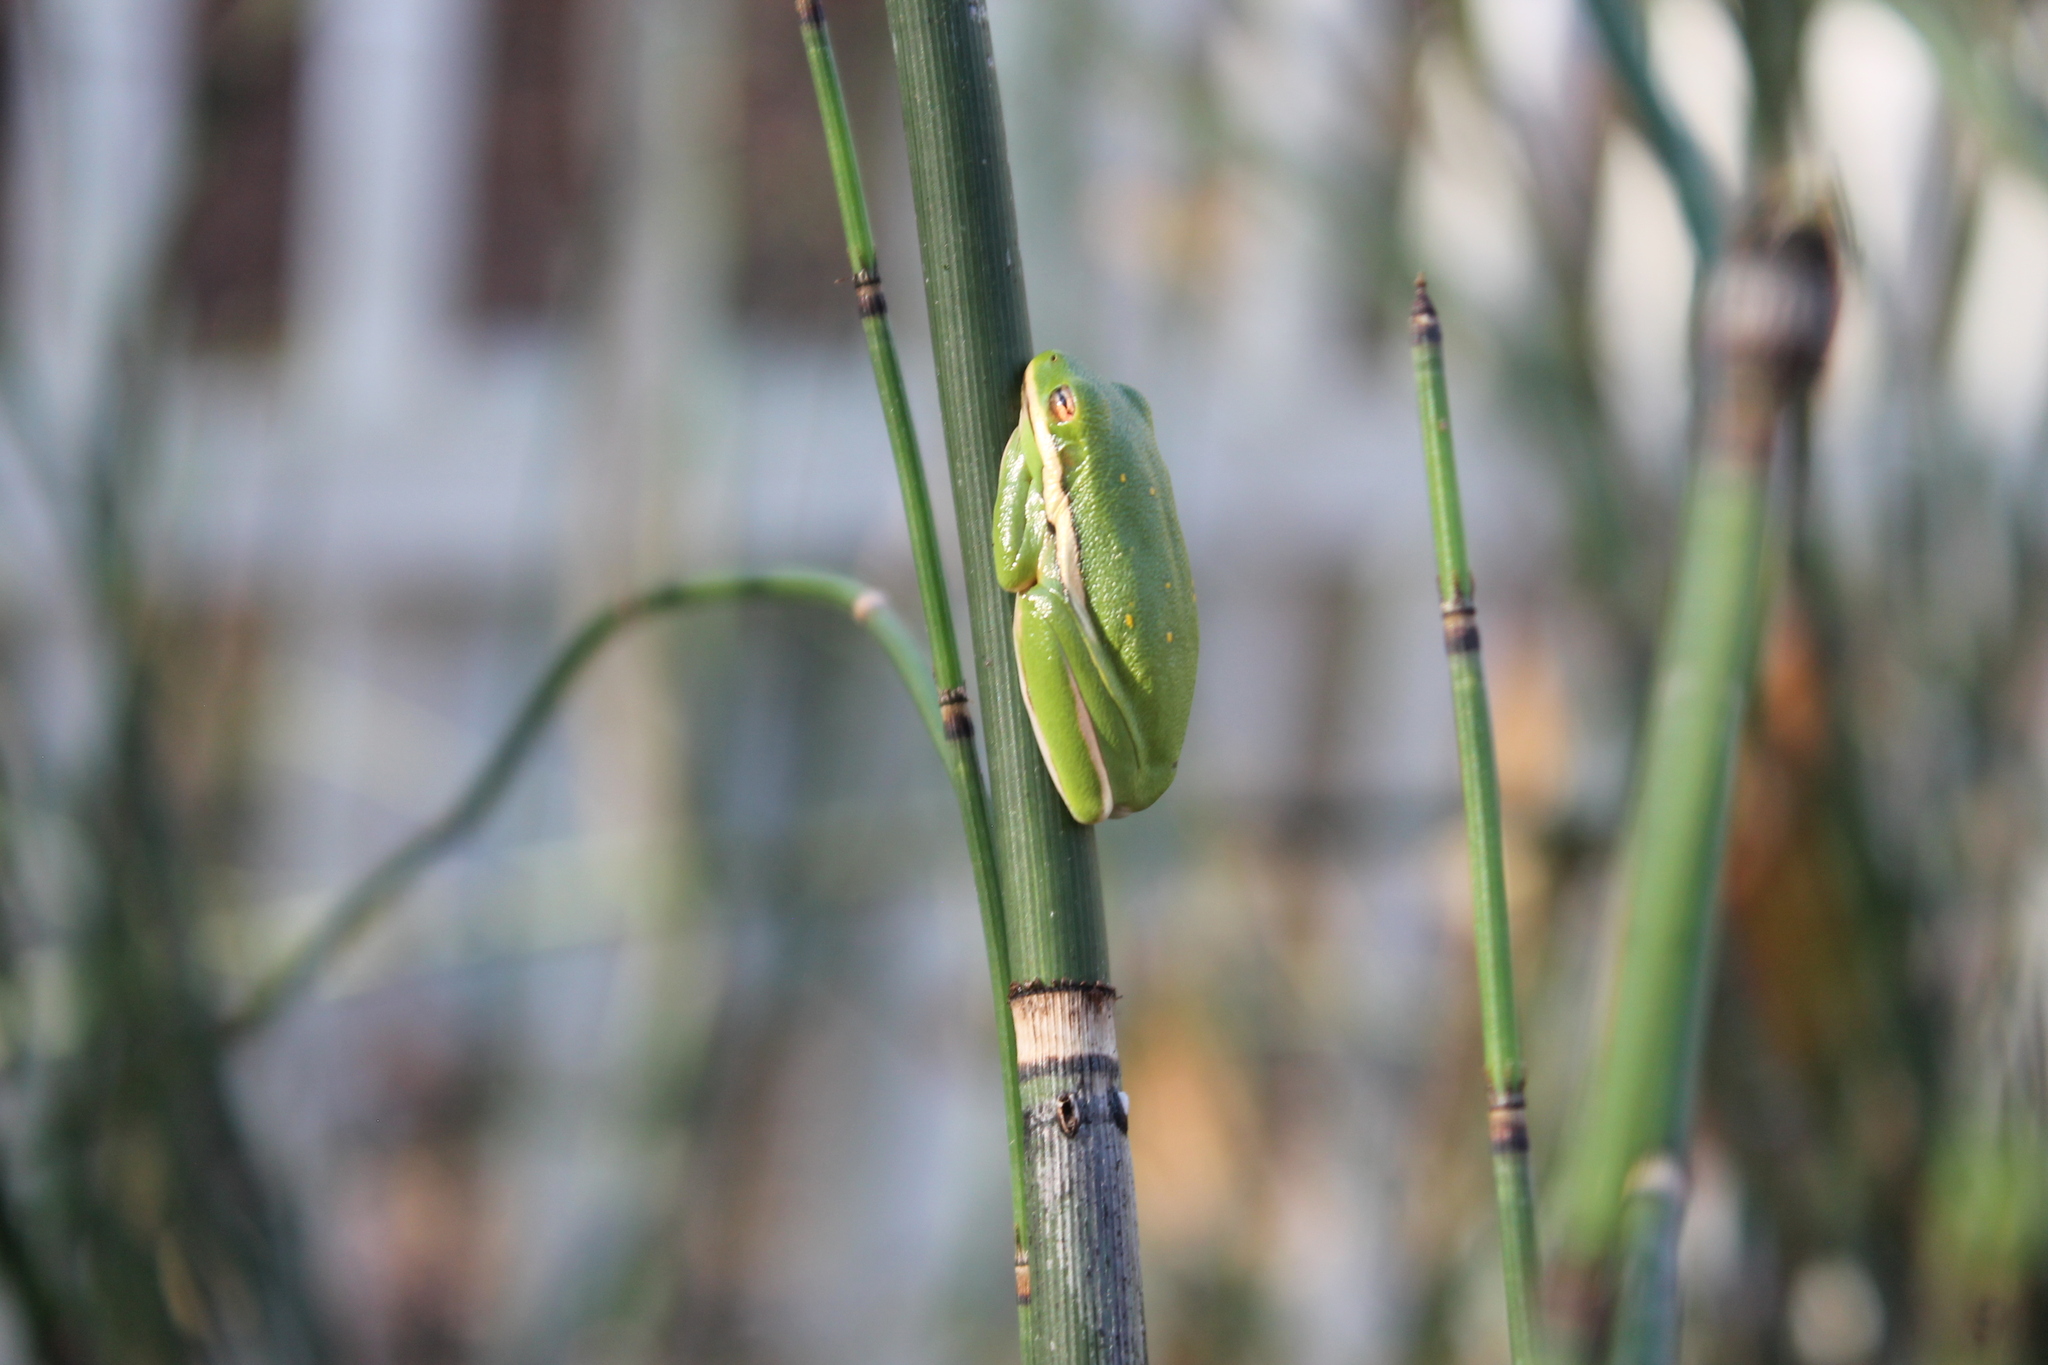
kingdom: Animalia
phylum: Chordata
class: Amphibia
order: Anura
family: Hylidae
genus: Dryophytes
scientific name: Dryophytes cinereus
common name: Green treefrog
